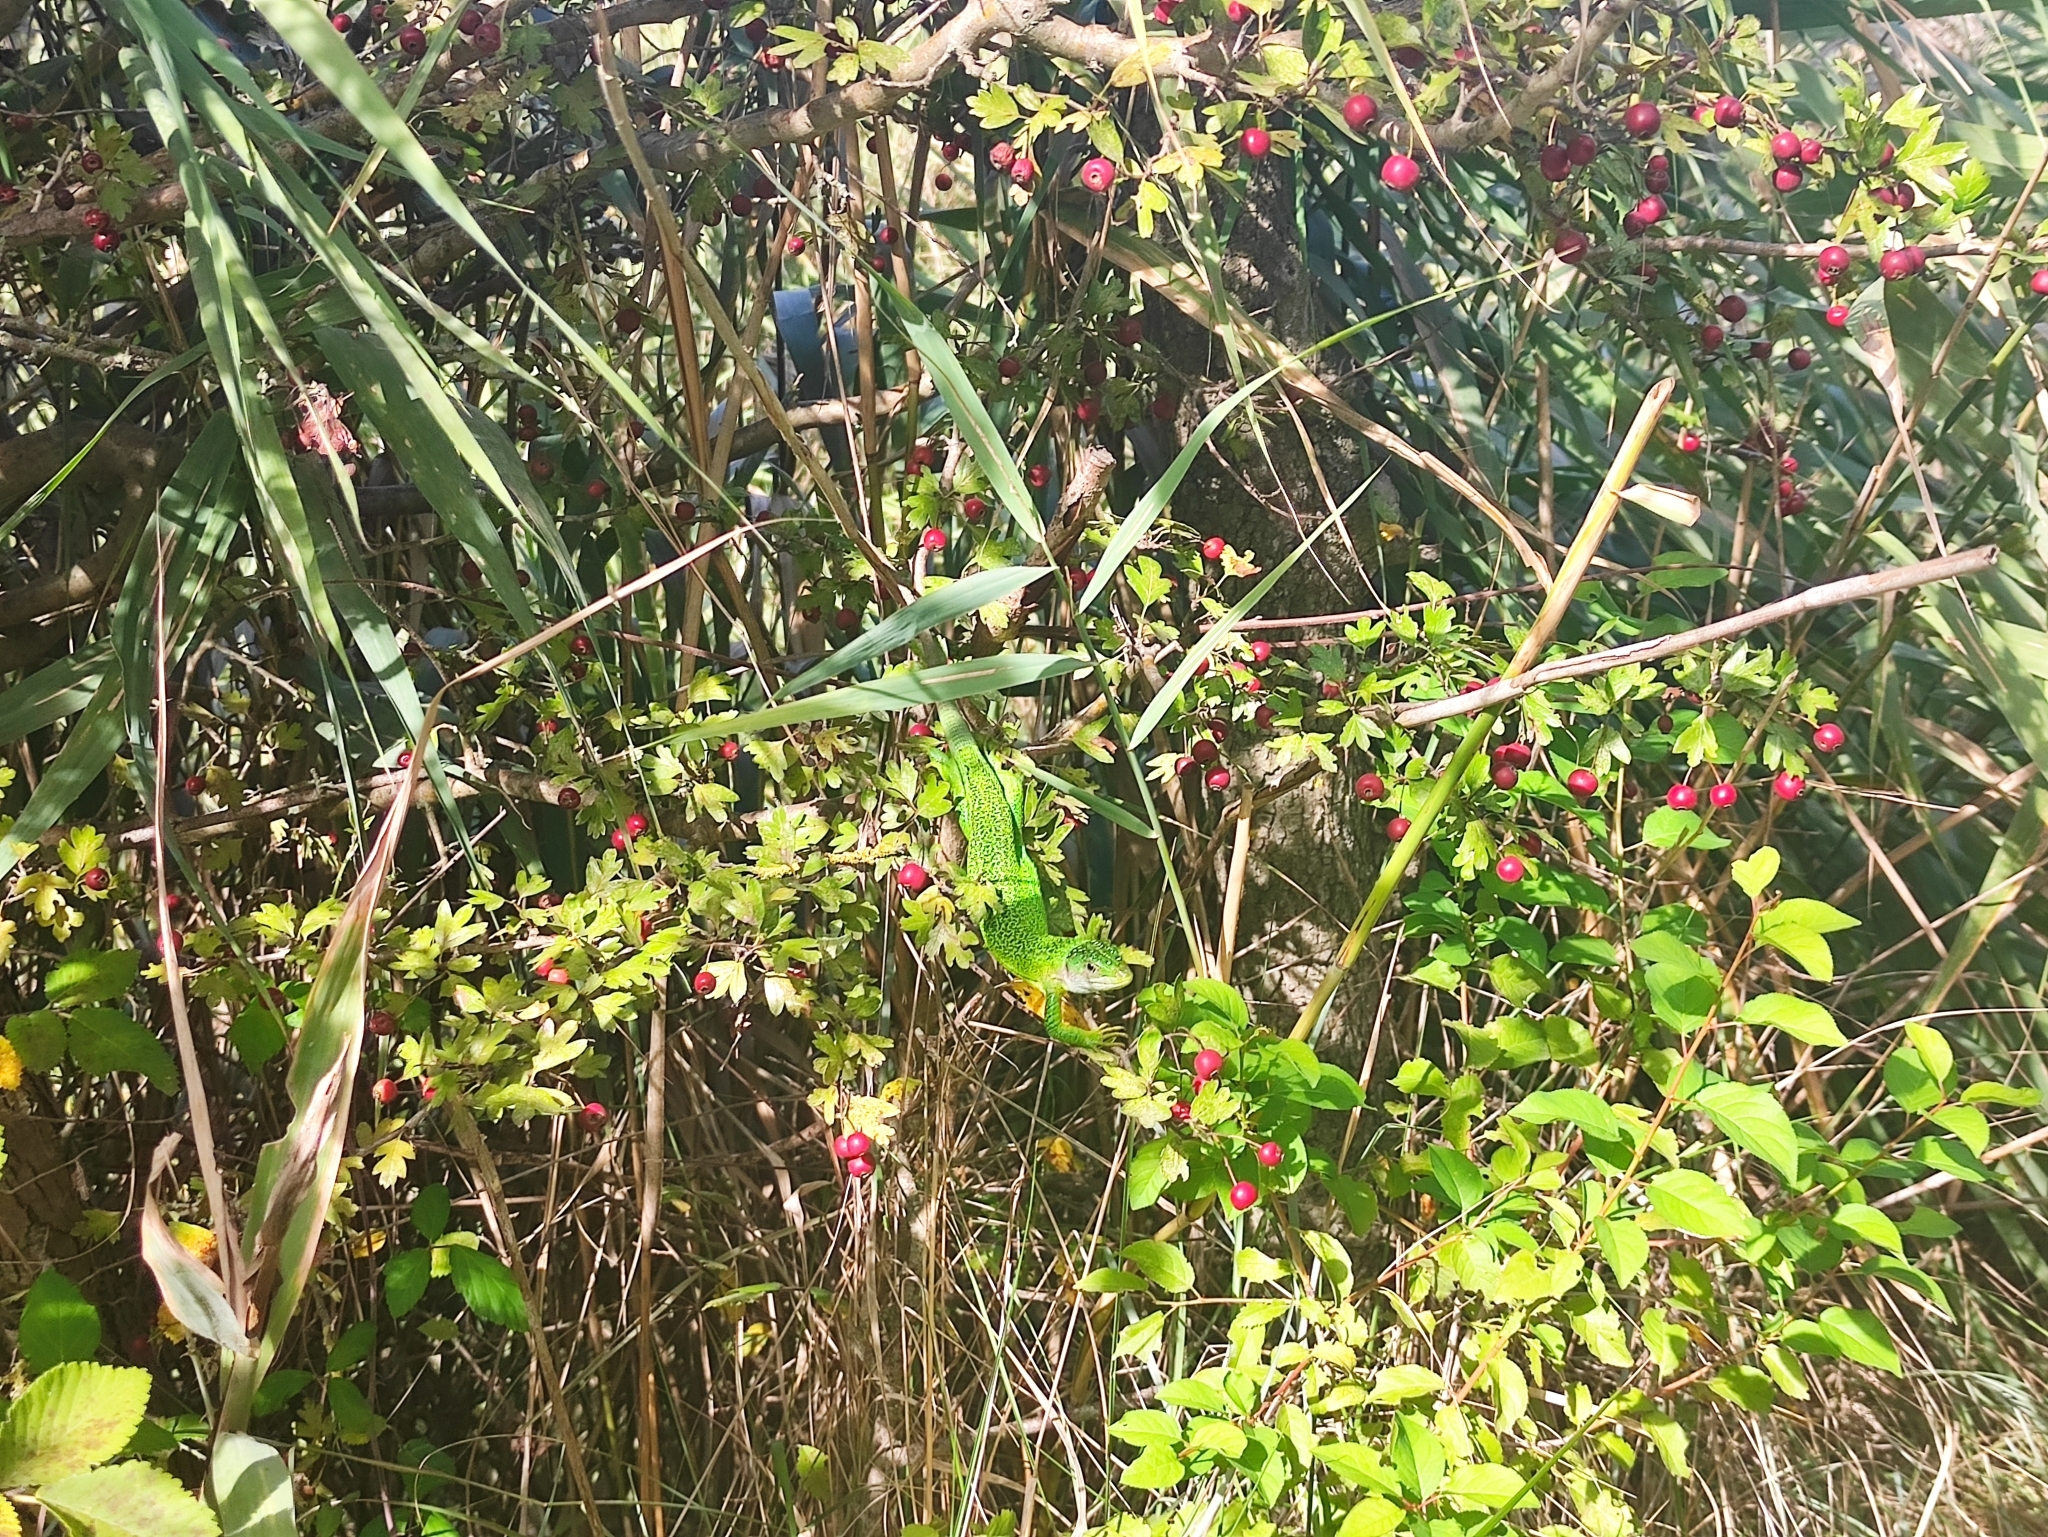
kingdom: Animalia
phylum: Chordata
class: Squamata
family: Lacertidae
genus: Lacerta
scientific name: Lacerta bilineata
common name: Western green lizard
